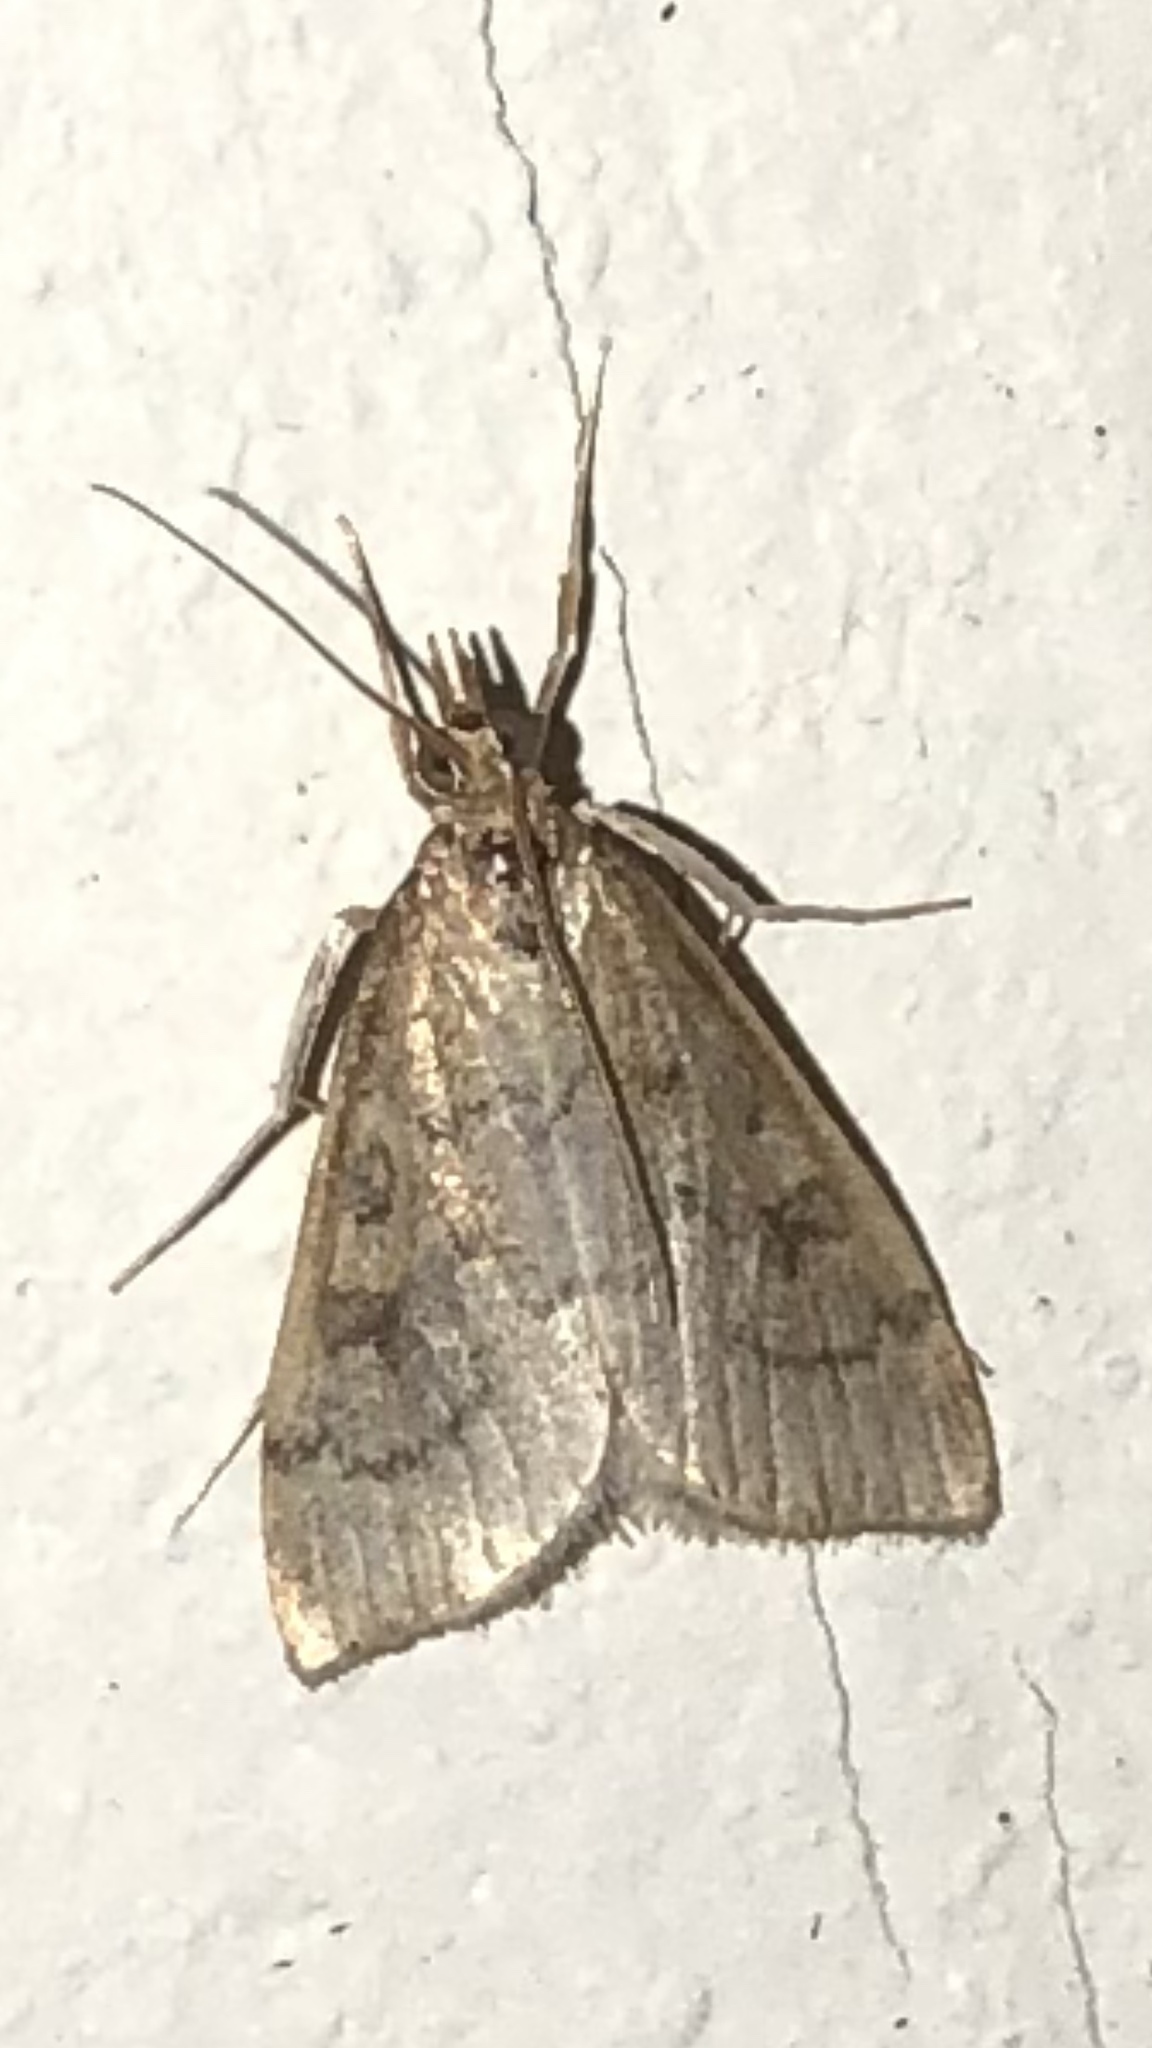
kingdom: Animalia
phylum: Arthropoda
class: Insecta
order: Lepidoptera
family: Crambidae
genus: Udea
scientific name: Udea rubigalis
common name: Celery leaftier moth
